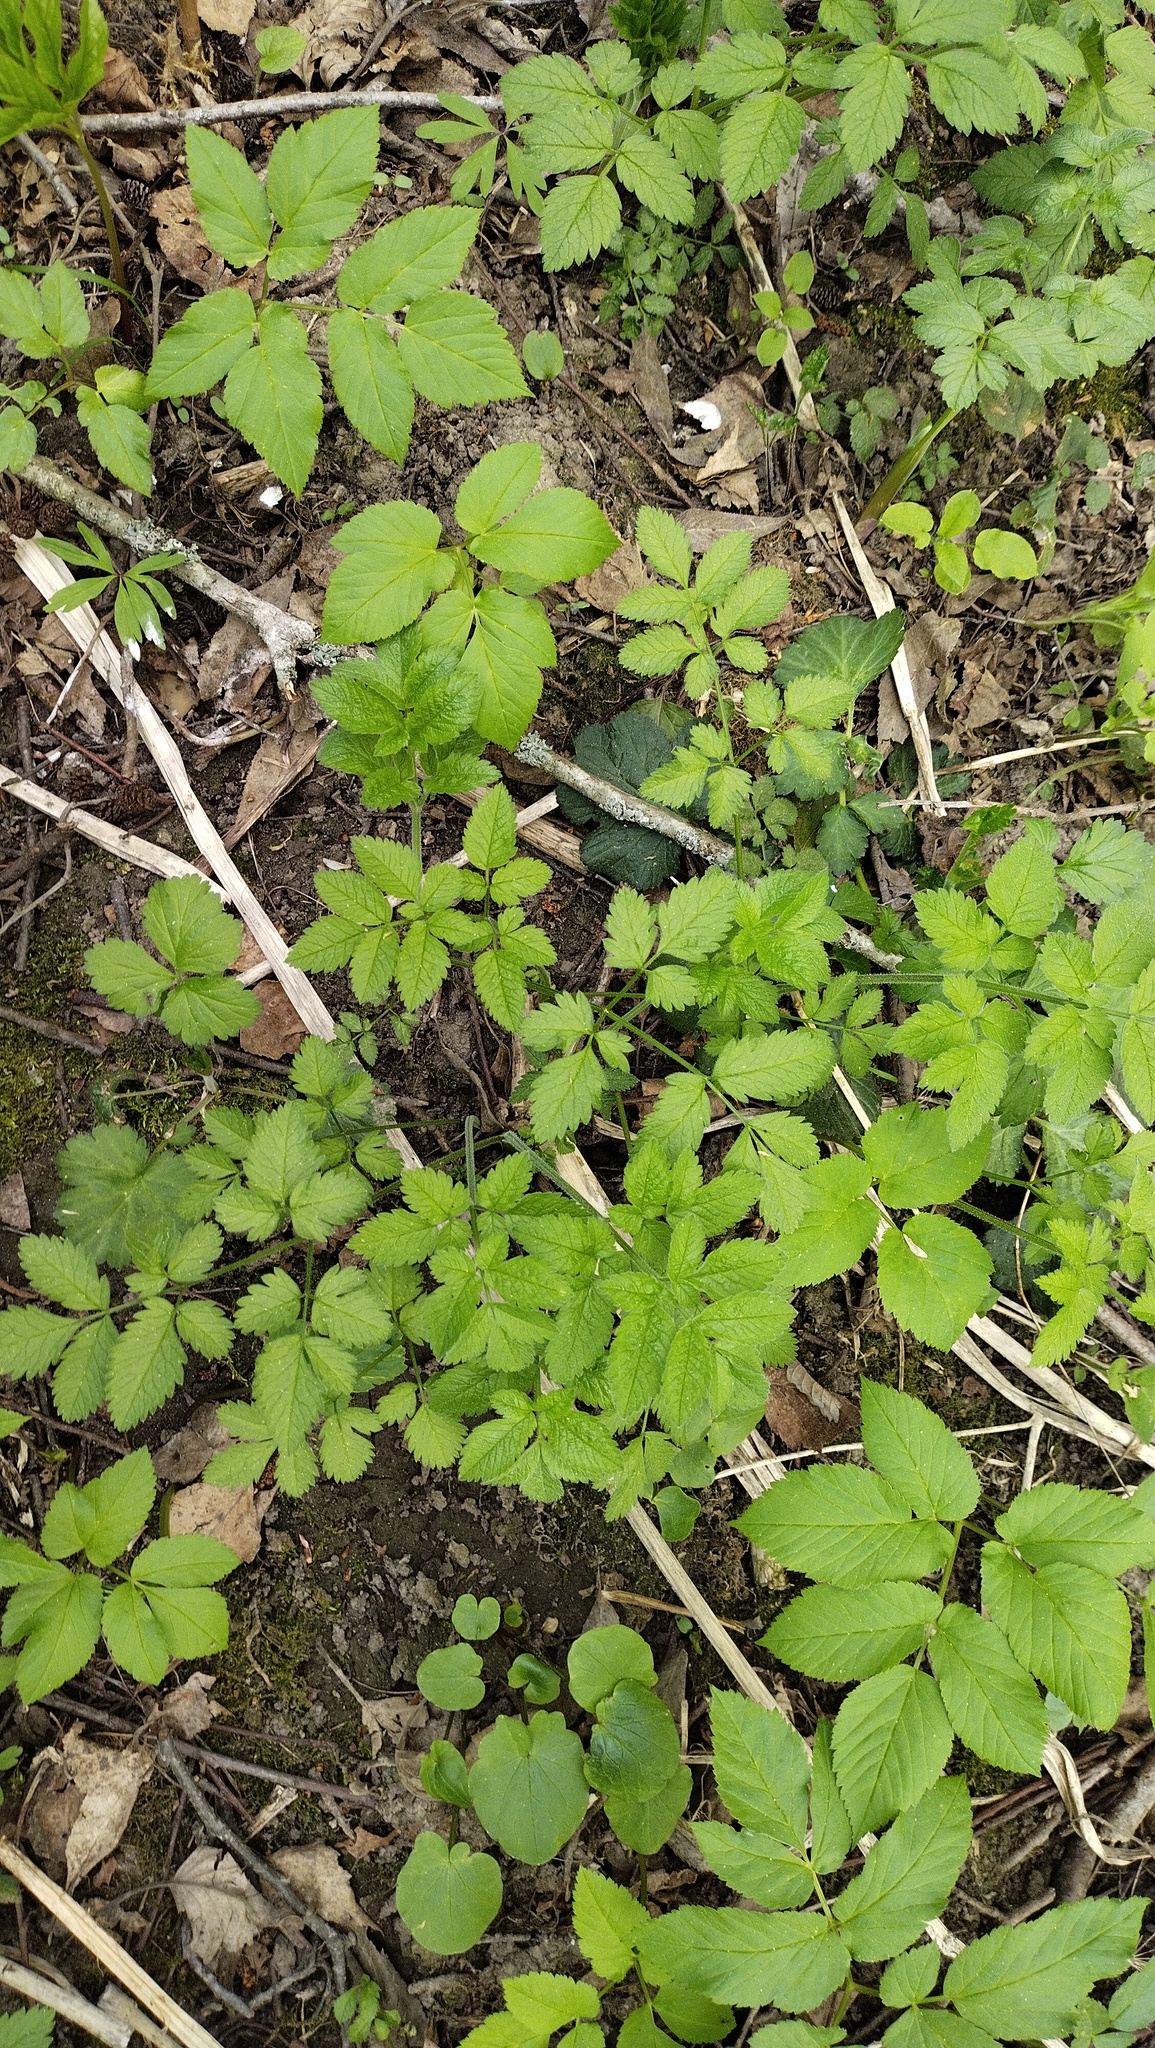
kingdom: Plantae
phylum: Tracheophyta
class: Magnoliopsida
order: Apiales
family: Apiaceae
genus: Chaerophyllum
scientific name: Chaerophyllum aromaticum
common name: Broadleaf chervil
